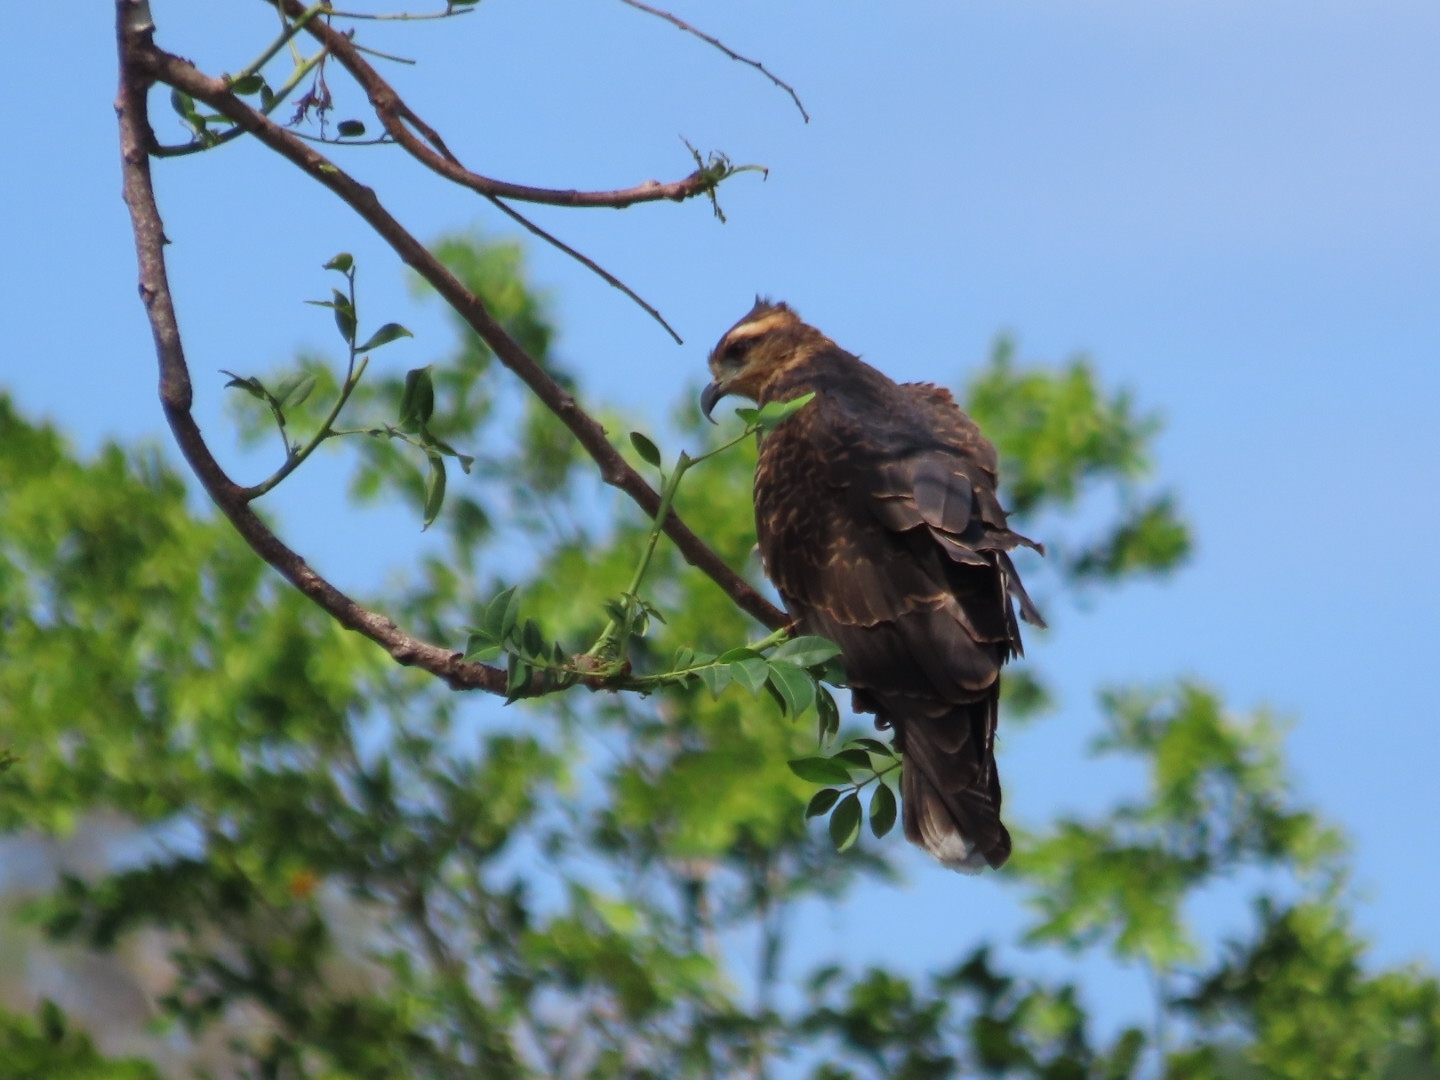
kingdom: Animalia
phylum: Chordata
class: Aves
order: Accipitriformes
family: Accipitridae
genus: Rostrhamus
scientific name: Rostrhamus sociabilis
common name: Snail kite
